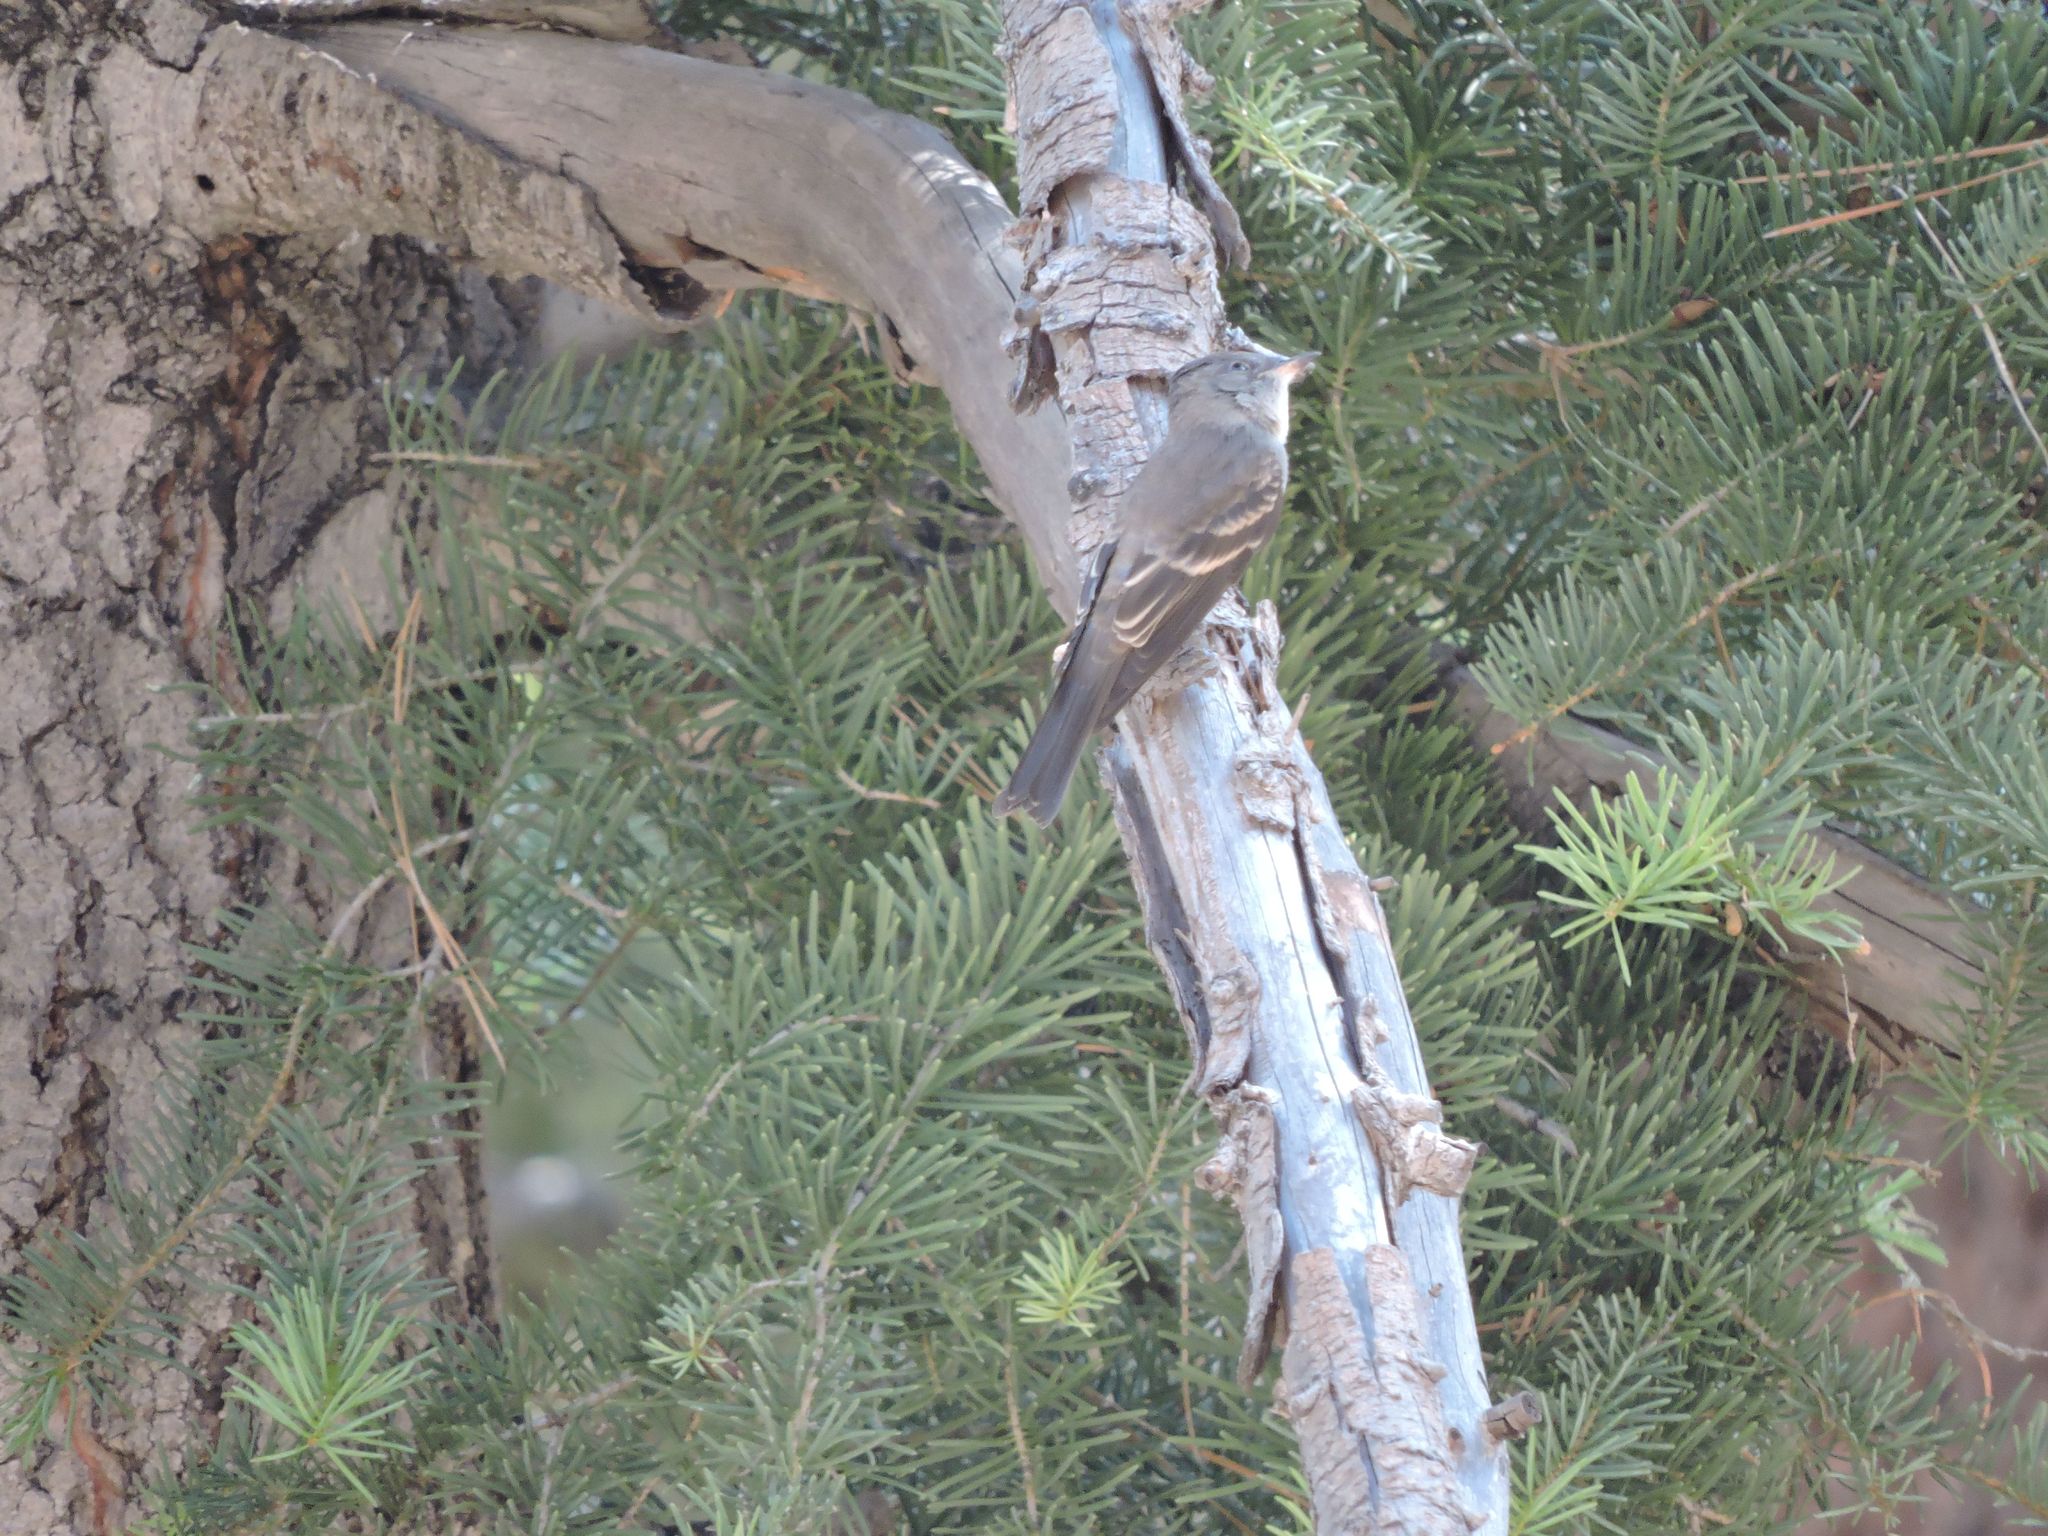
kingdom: Animalia
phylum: Chordata
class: Aves
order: Passeriformes
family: Tyrannidae
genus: Contopus
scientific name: Contopus sordidulus
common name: Western wood-pewee
